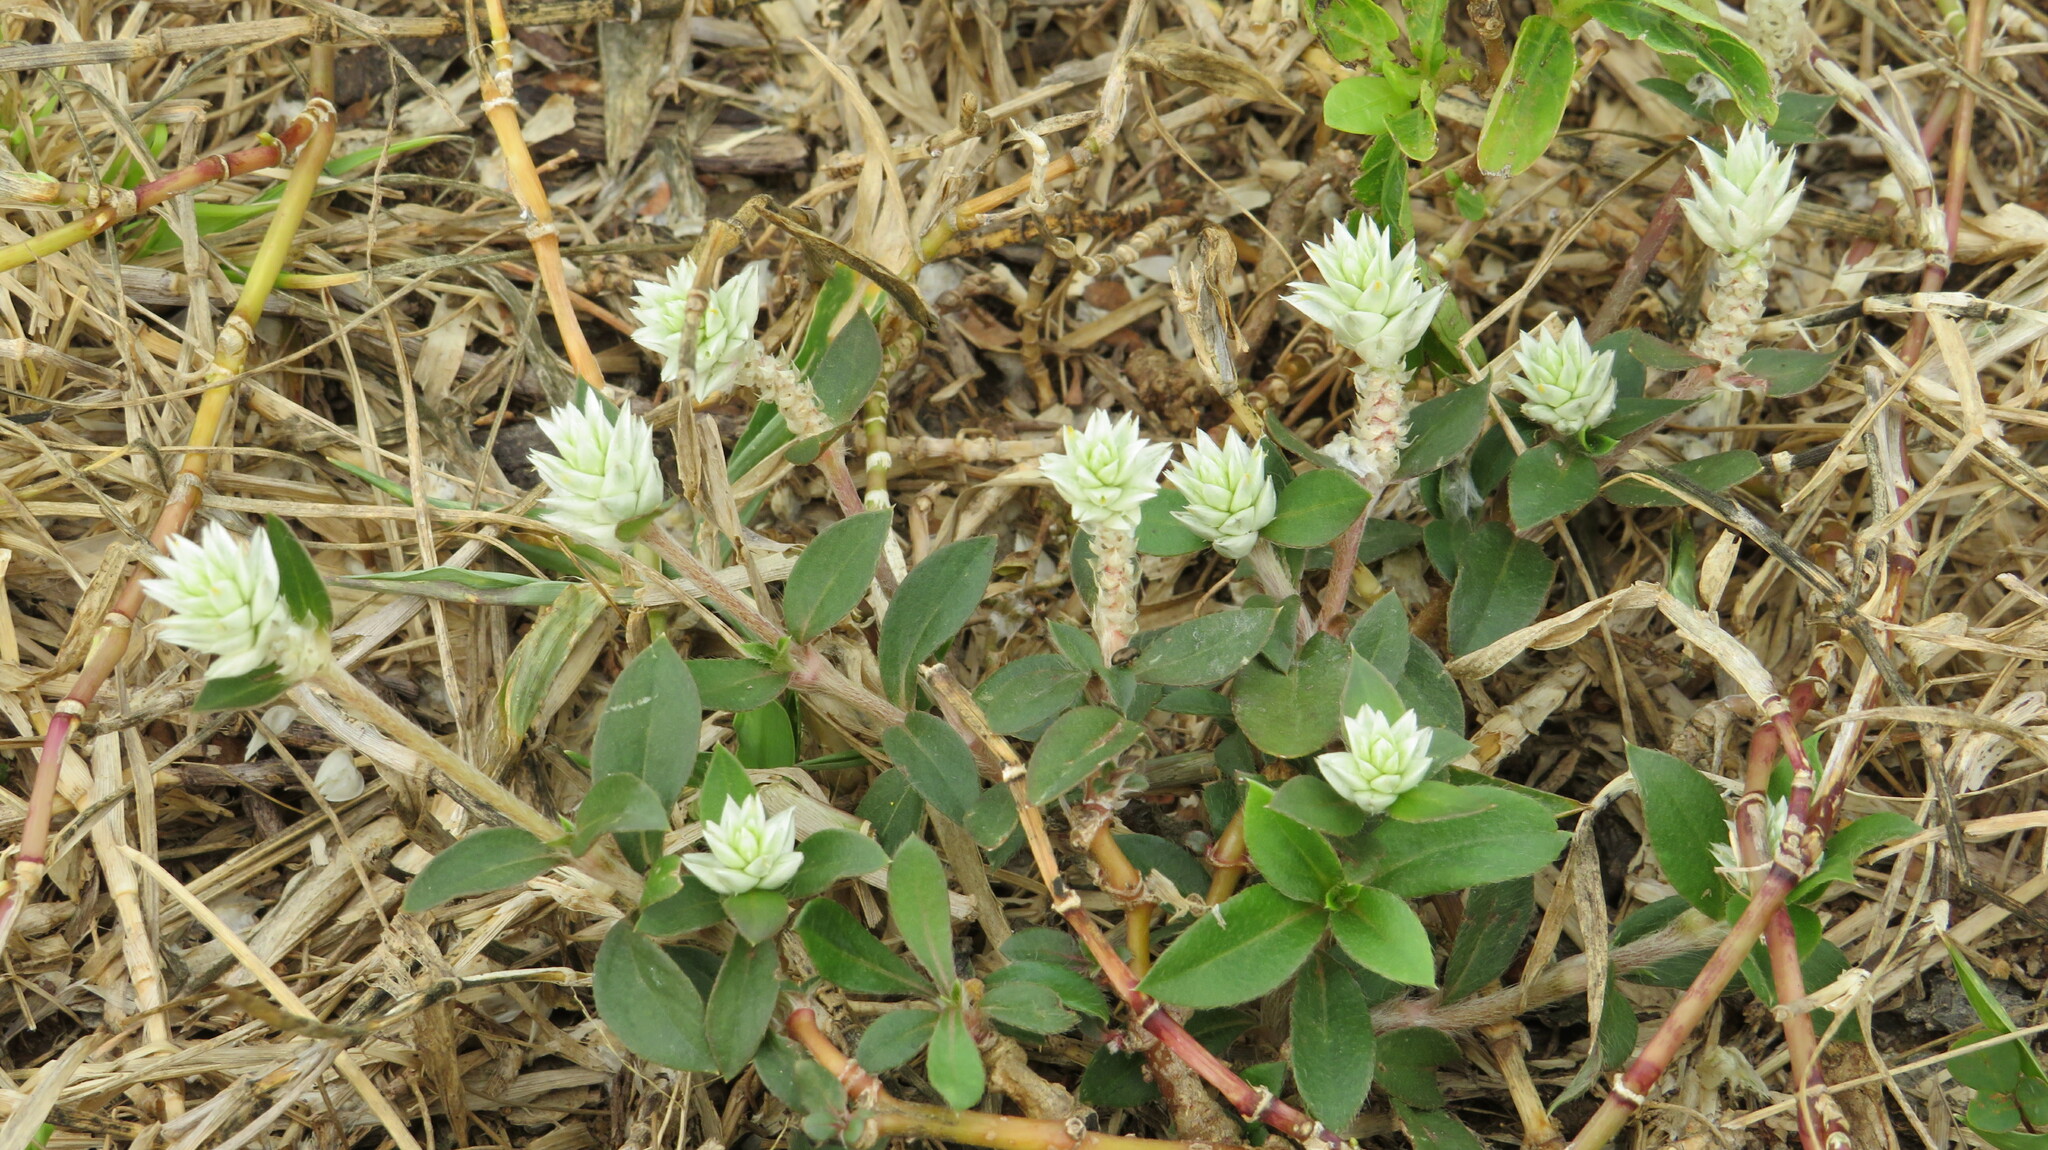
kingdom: Plantae
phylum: Tracheophyta
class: Magnoliopsida
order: Caryophyllales
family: Amaranthaceae
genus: Gomphrena
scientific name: Gomphrena celosioides
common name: Gomphrena-weed
